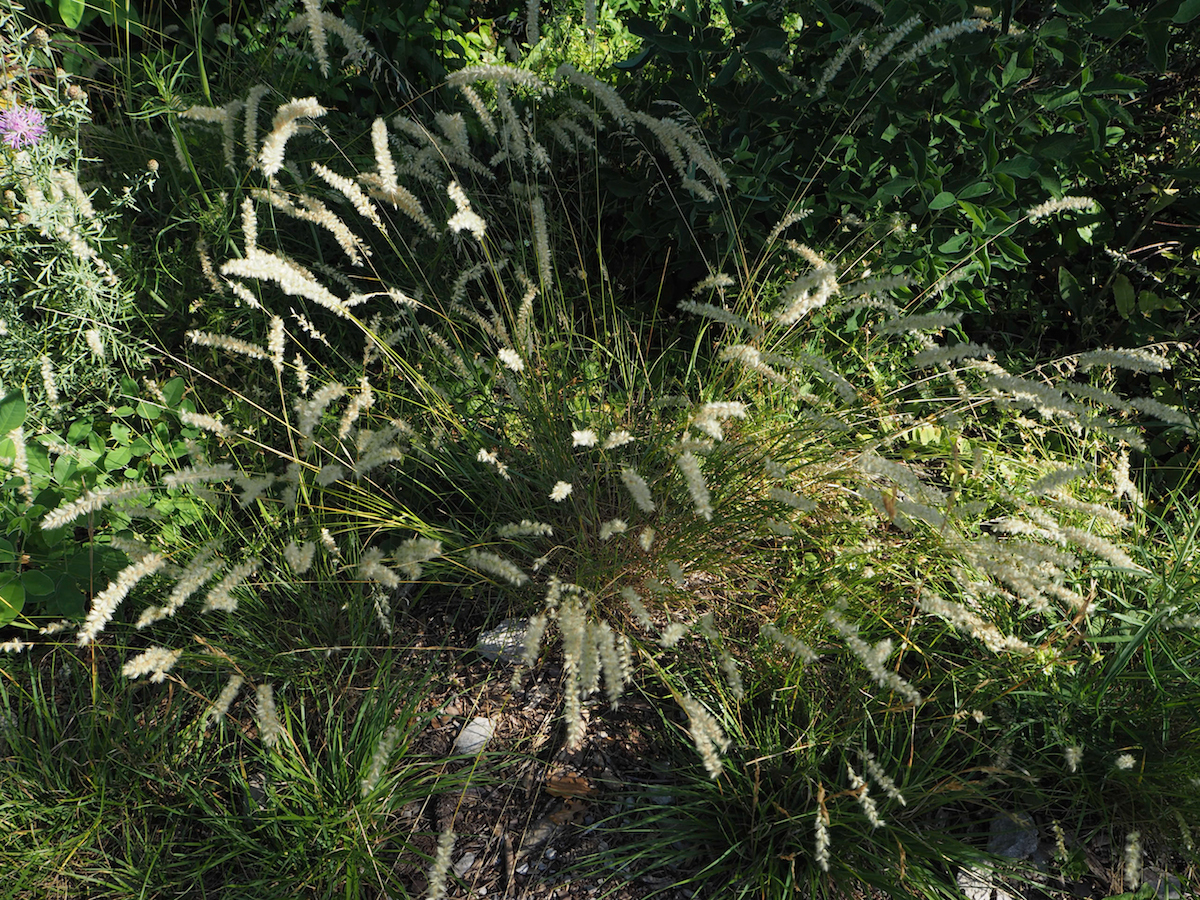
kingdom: Plantae
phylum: Tracheophyta
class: Liliopsida
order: Poales
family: Poaceae
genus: Melica
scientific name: Melica ciliata
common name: Hairy melicgrass
